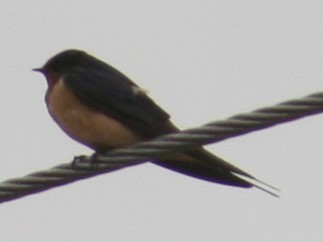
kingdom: Animalia
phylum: Chordata
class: Aves
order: Passeriformes
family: Hirundinidae
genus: Hirundo
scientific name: Hirundo rustica
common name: Barn swallow
